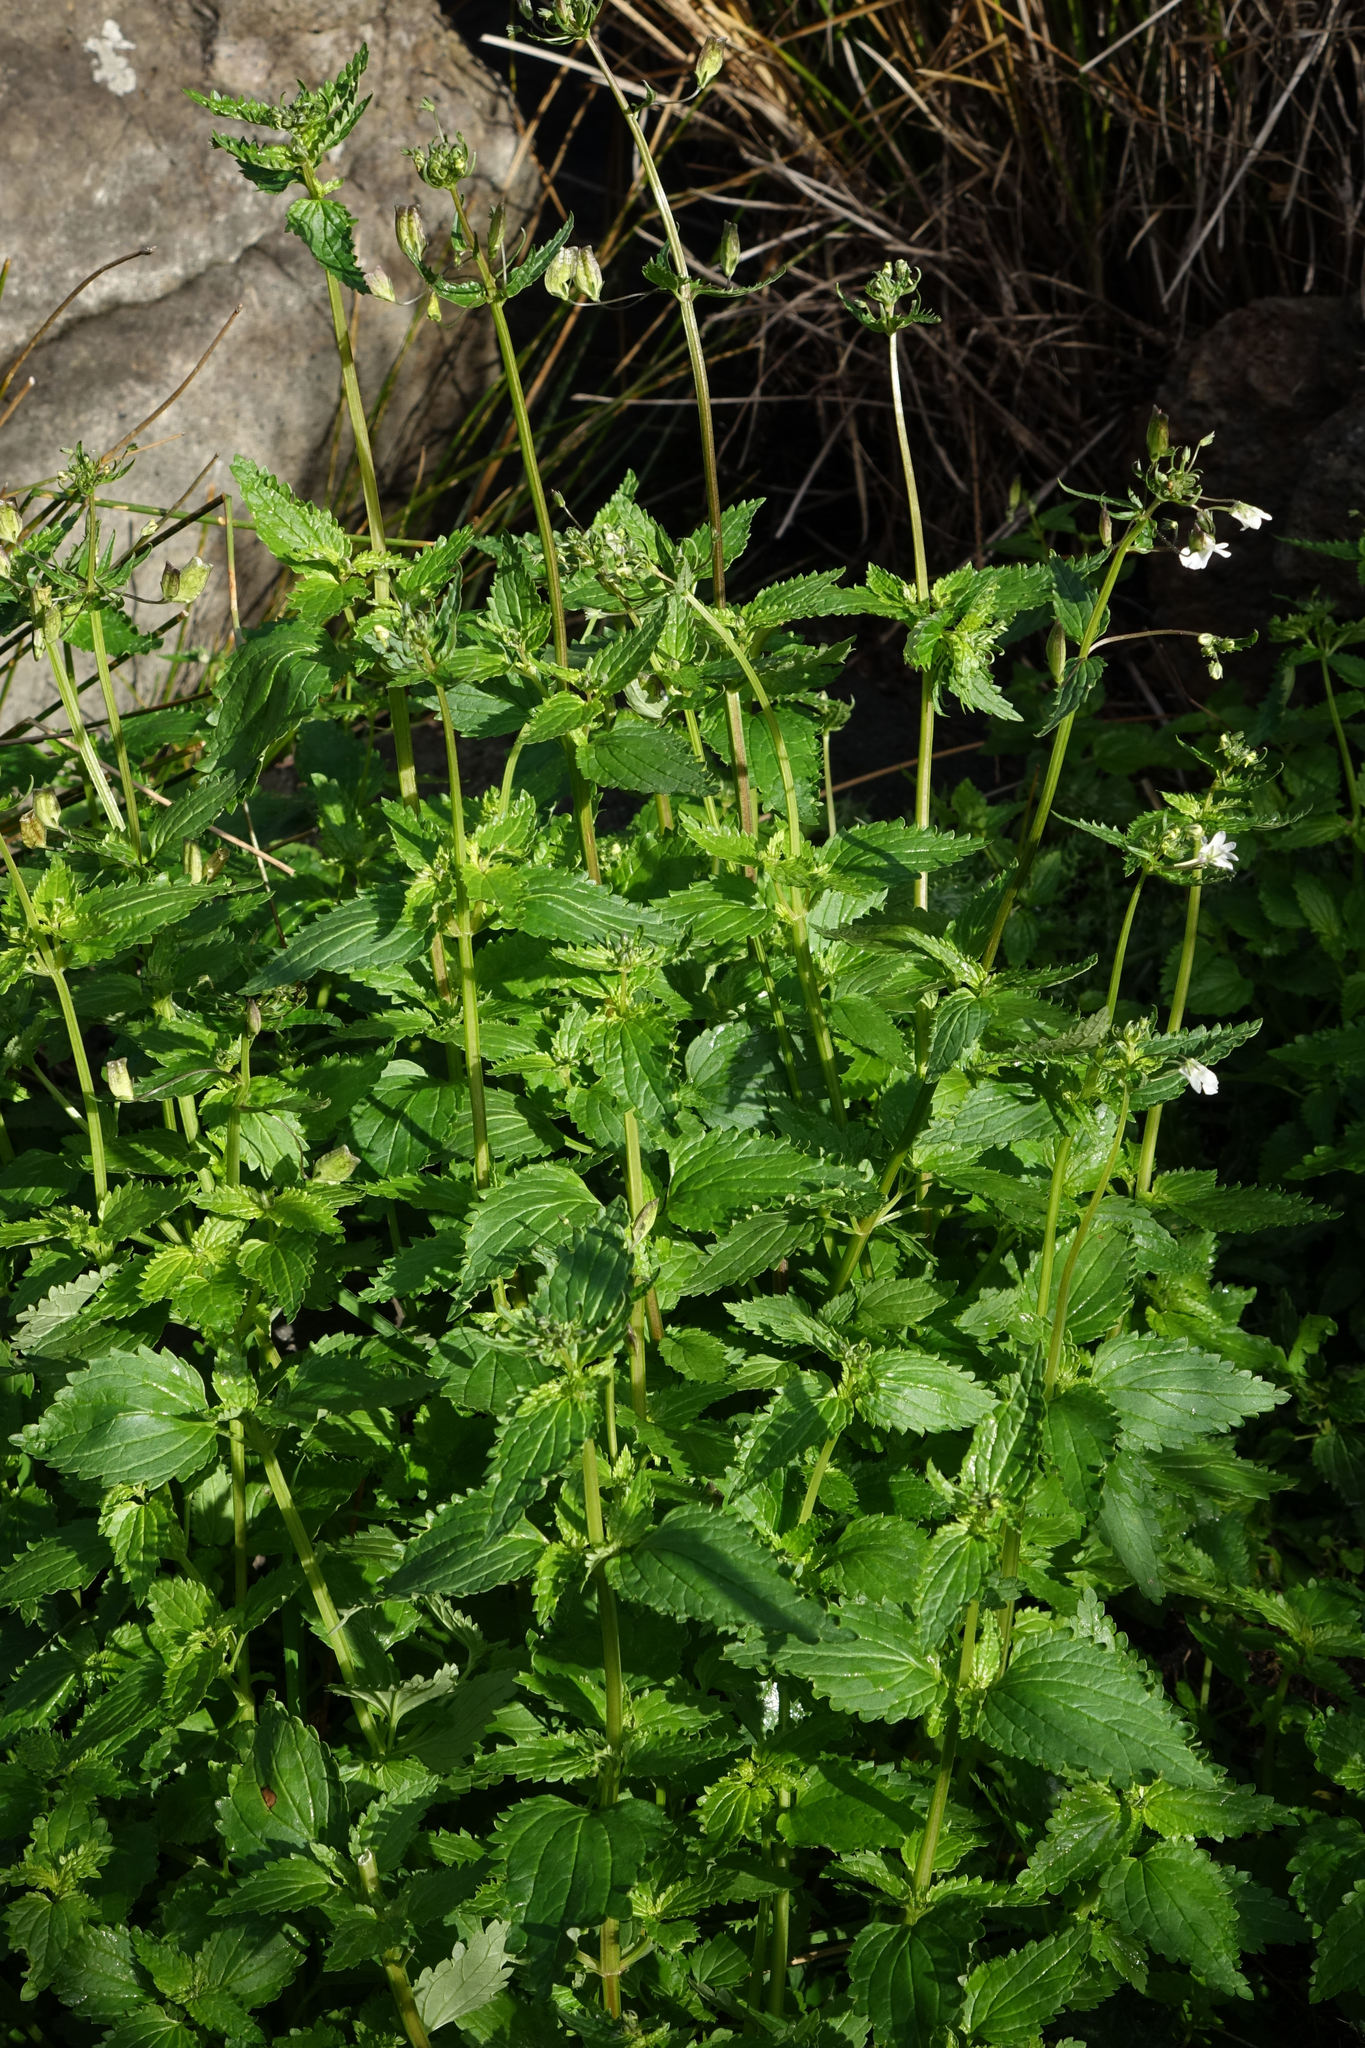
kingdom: Plantae
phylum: Tracheophyta
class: Magnoliopsida
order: Lamiales
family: Scrophulariaceae
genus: Nemesia
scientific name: Nemesia floribunda
